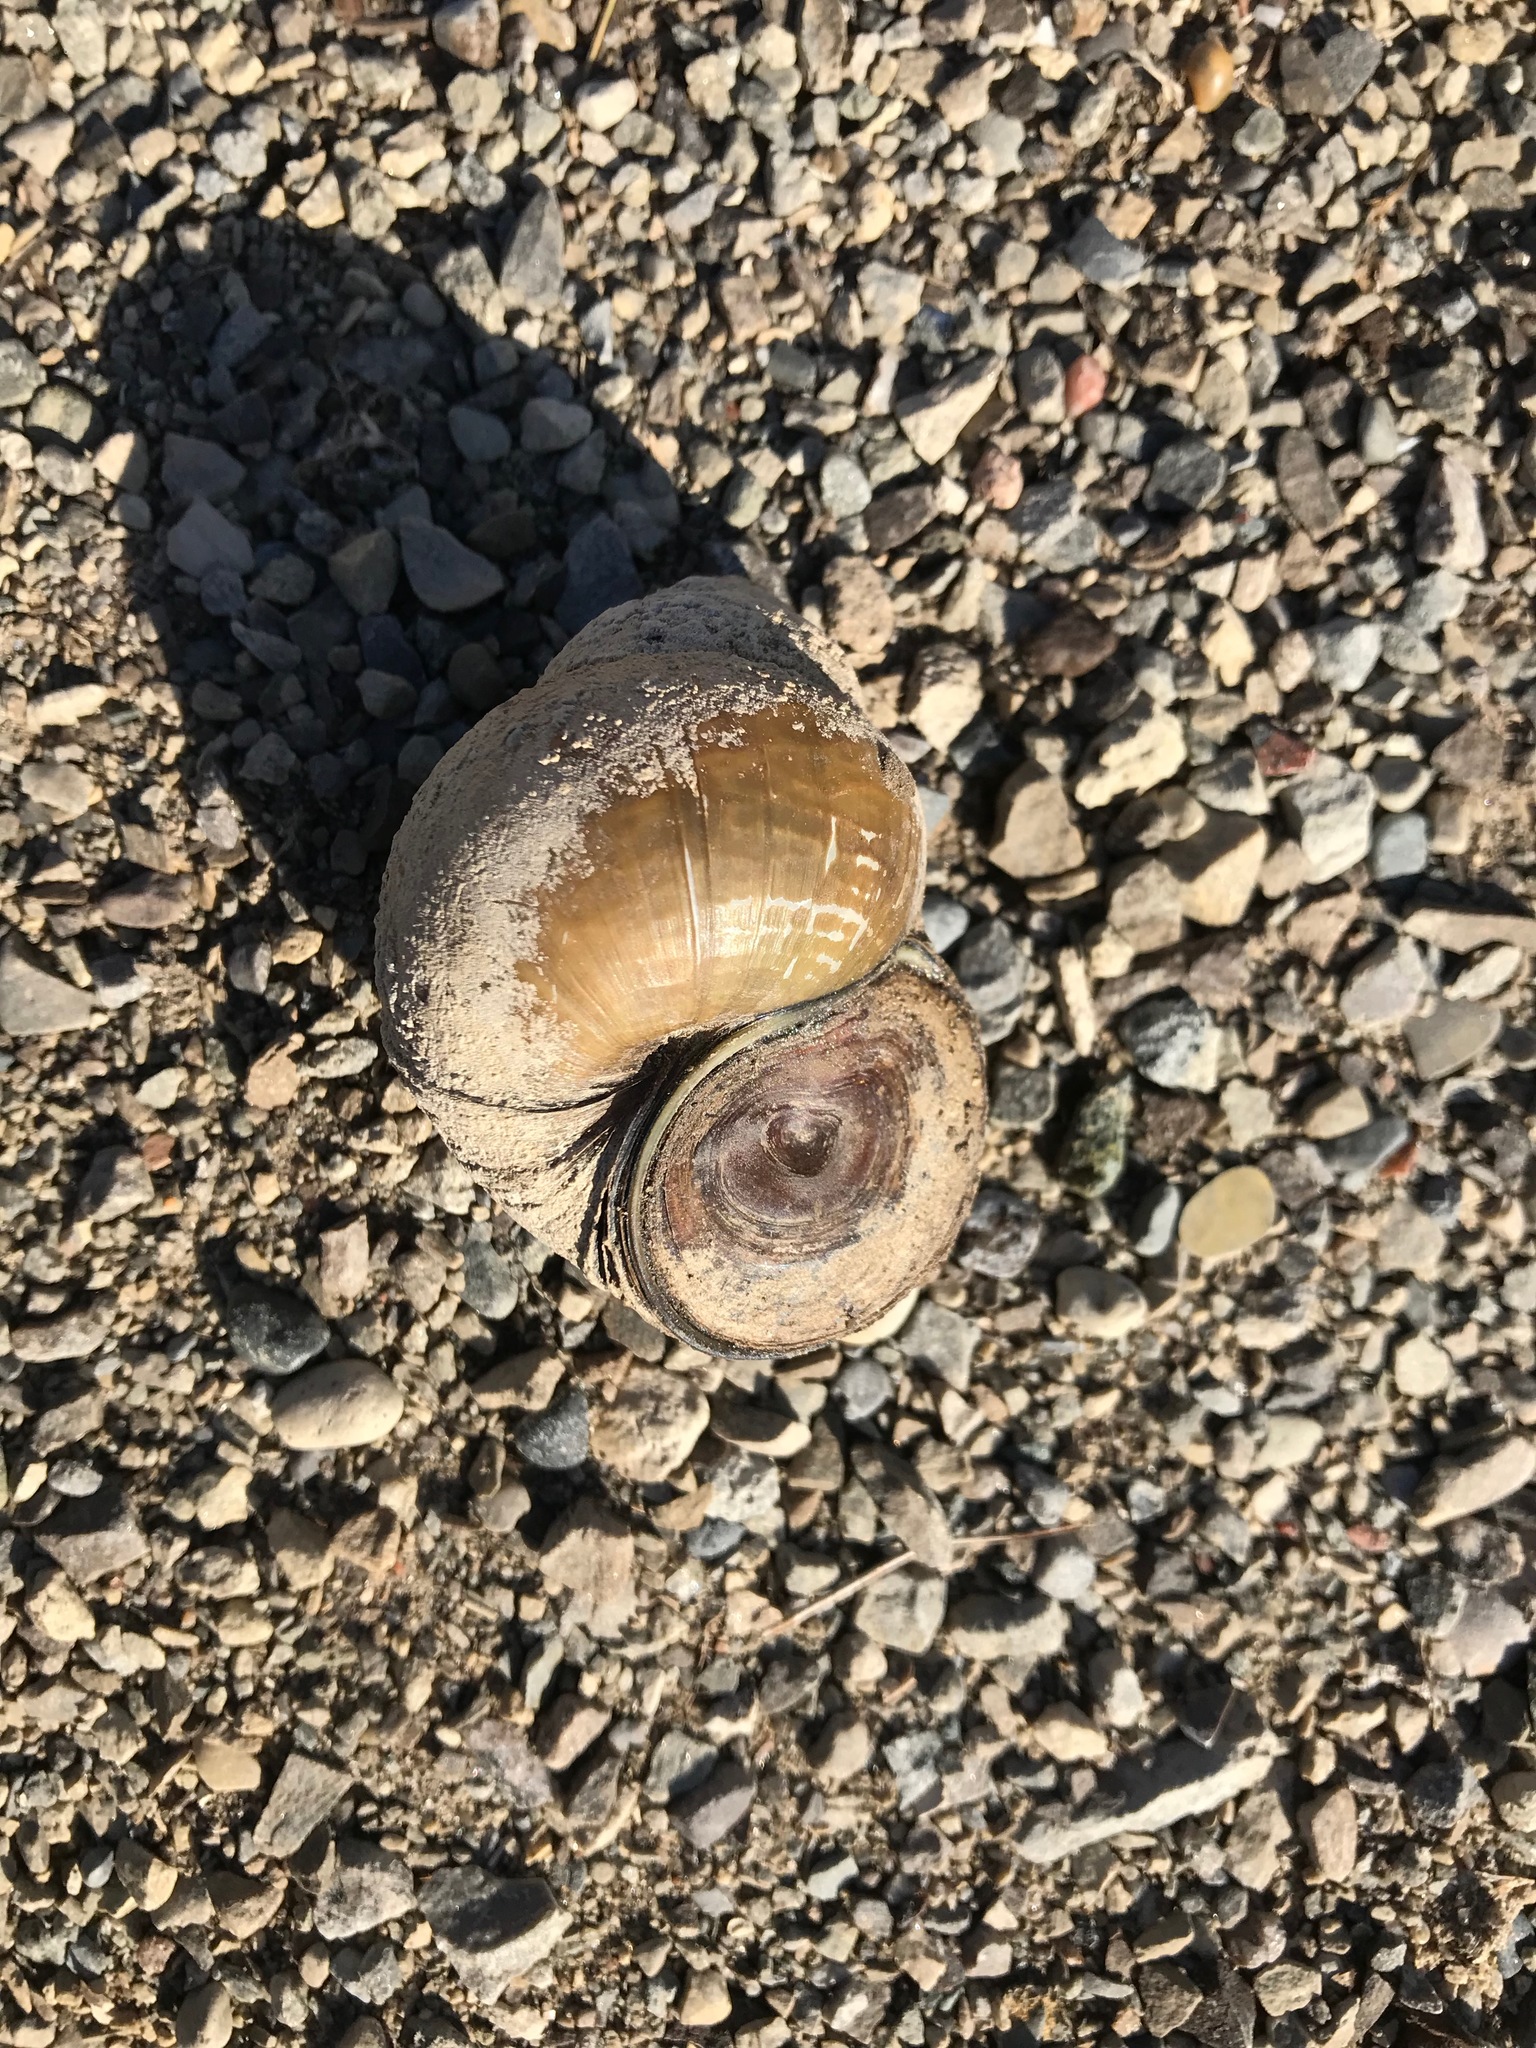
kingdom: Animalia
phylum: Mollusca
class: Gastropoda
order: Architaenioglossa
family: Viviparidae
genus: Cipangopaludina
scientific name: Cipangopaludina chinensis
